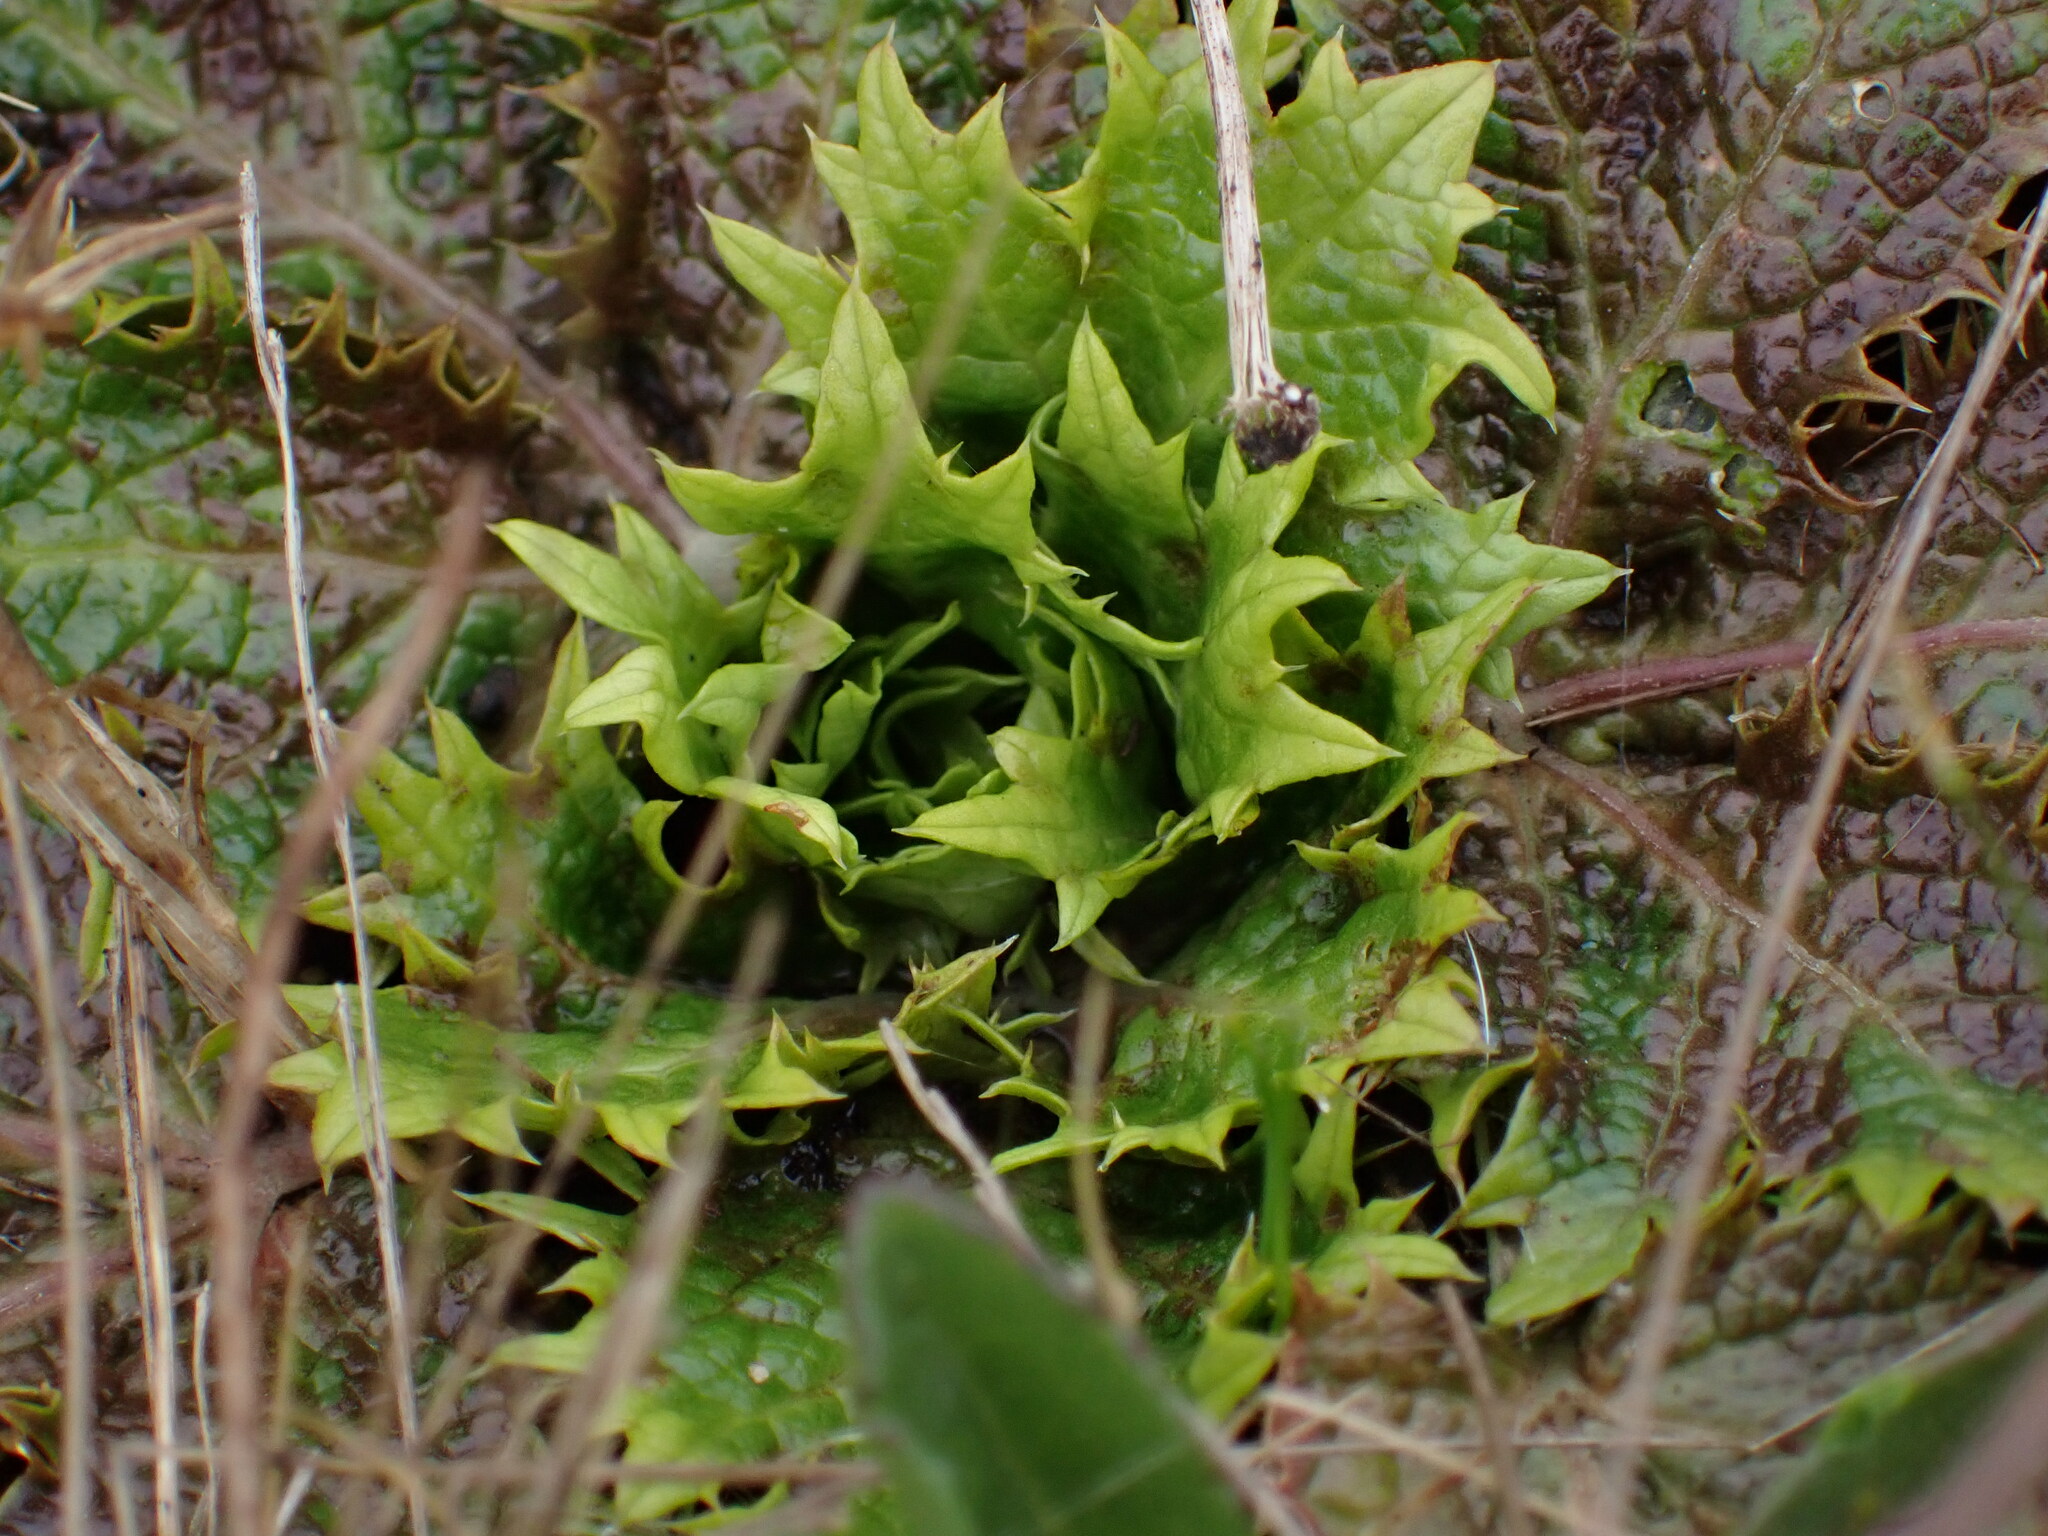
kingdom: Plantae
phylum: Tracheophyta
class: Magnoliopsida
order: Apiales
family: Apiaceae
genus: Sanicula
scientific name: Sanicula arctopoides
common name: Footsteps-of-spring
